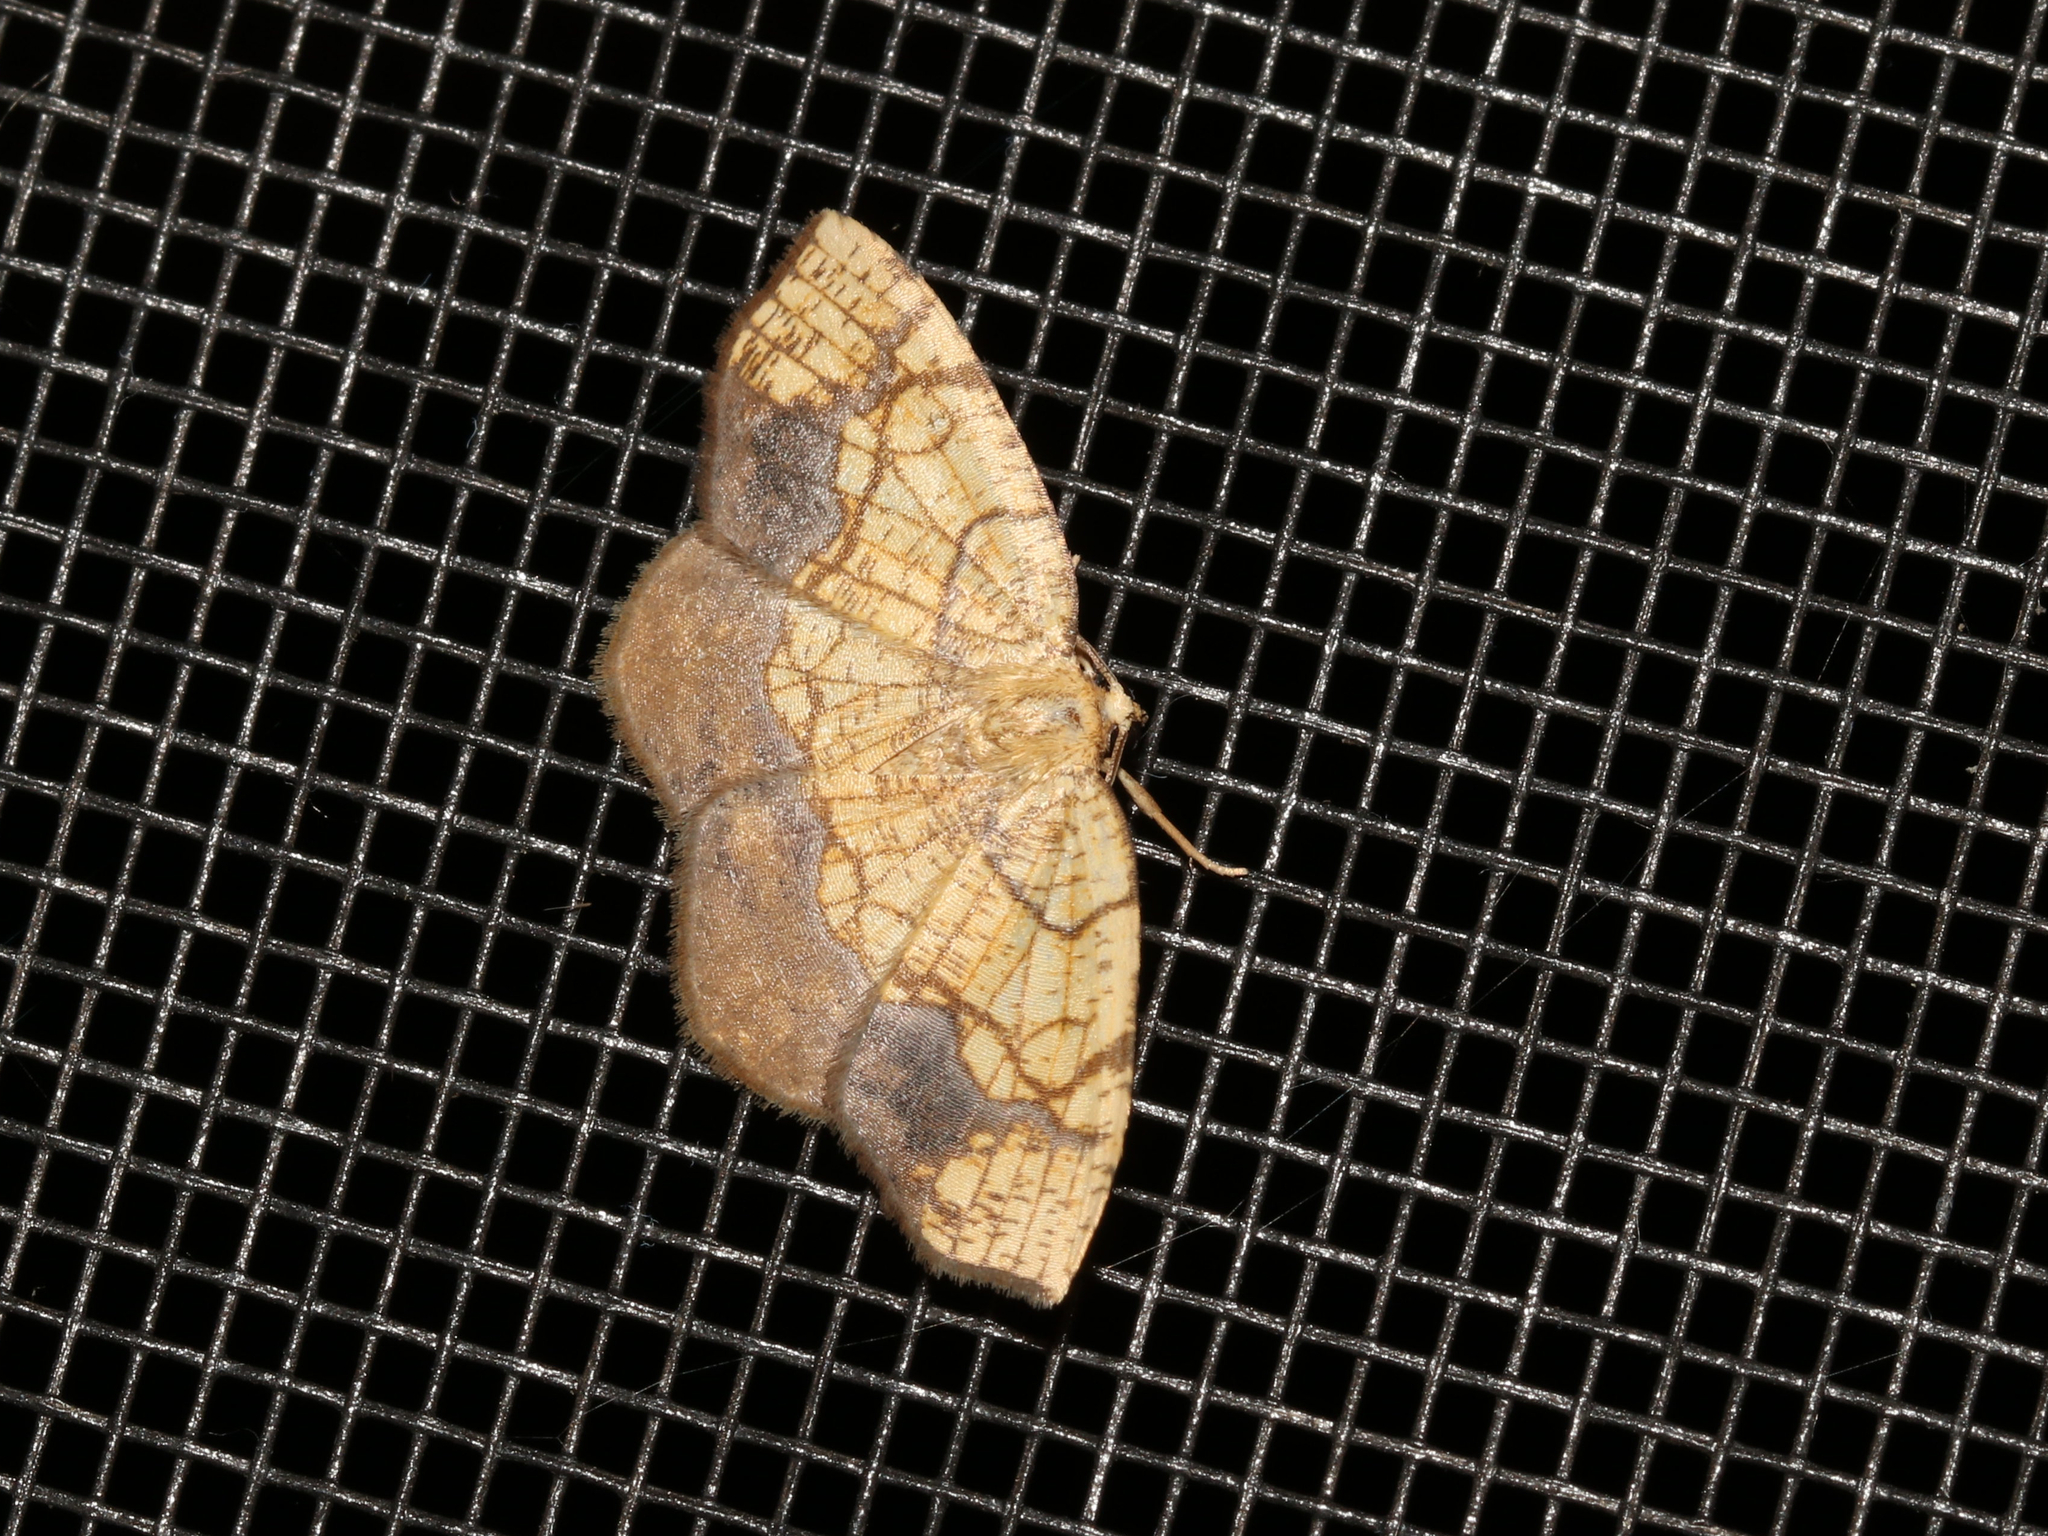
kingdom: Animalia
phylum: Arthropoda
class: Insecta
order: Lepidoptera
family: Geometridae
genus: Nematocampa
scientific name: Nematocampa resistaria
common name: Horned spanworm moth
